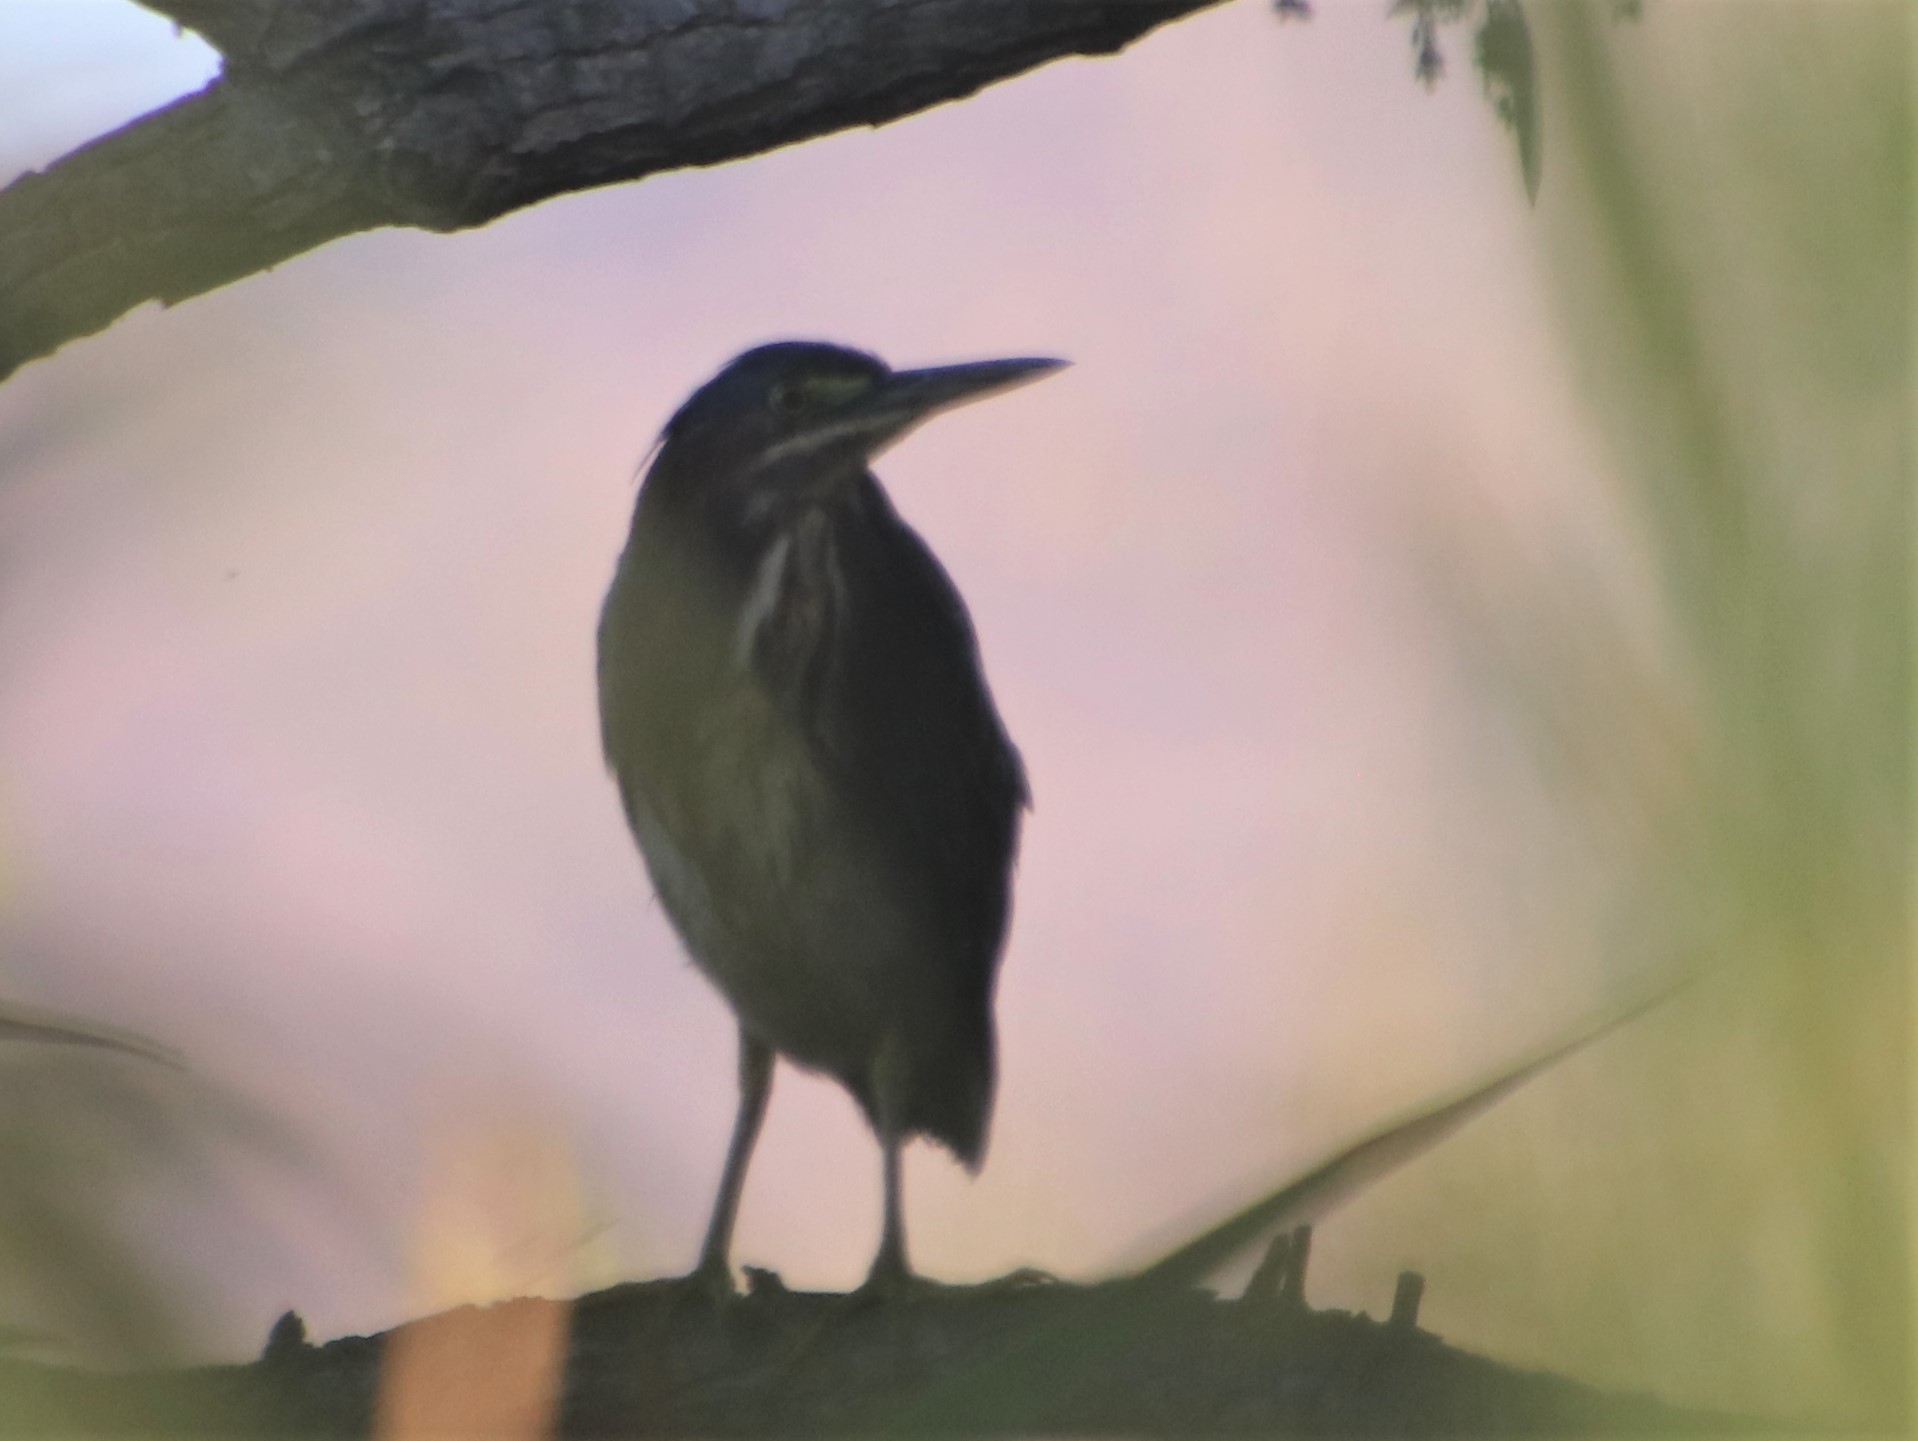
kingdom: Animalia
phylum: Chordata
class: Aves
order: Pelecaniformes
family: Ardeidae
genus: Butorides
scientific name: Butorides virescens
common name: Green heron
